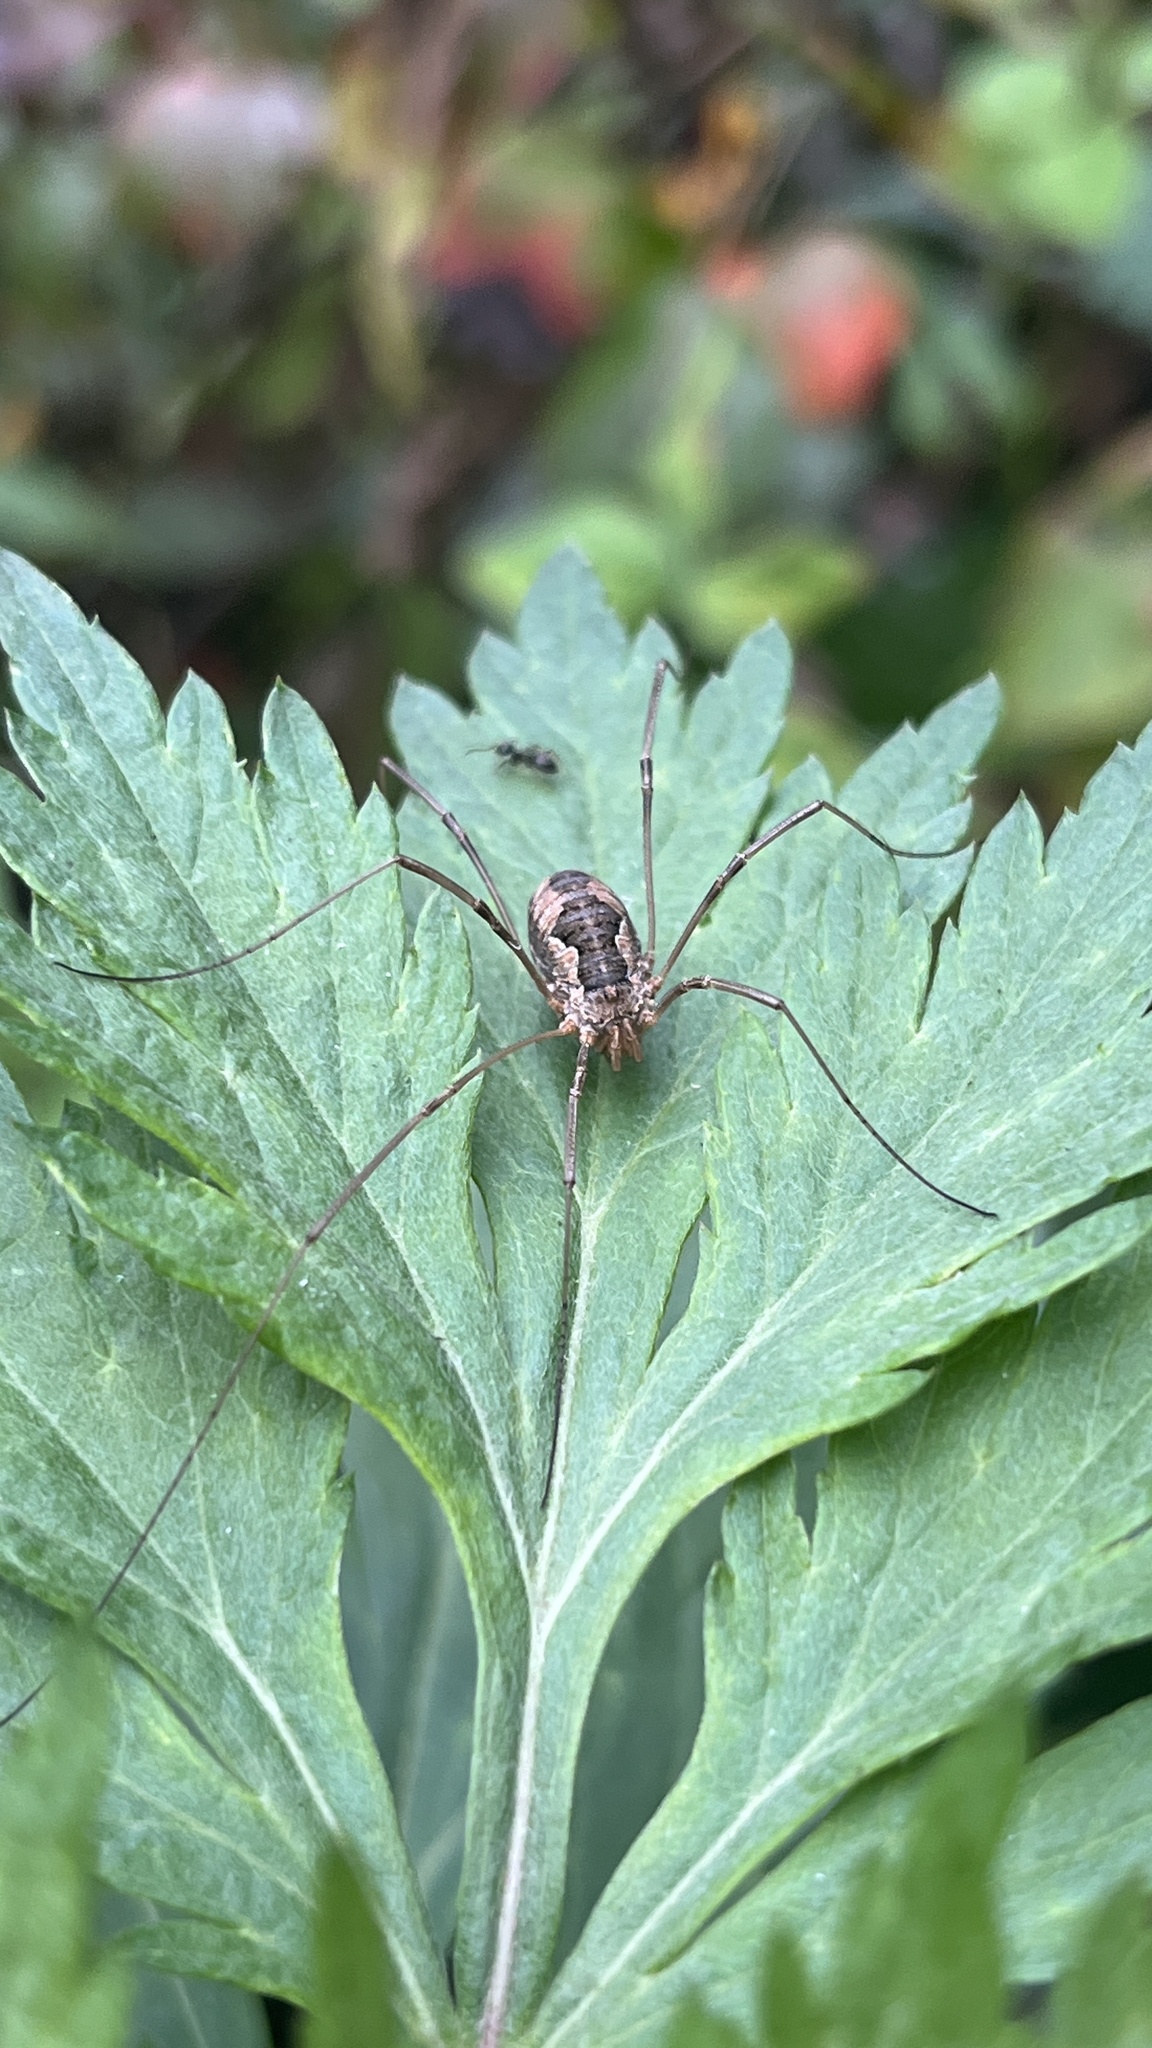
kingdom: Animalia
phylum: Arthropoda
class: Arachnida
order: Opiliones
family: Phalangiidae
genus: Phalangium
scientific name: Phalangium opilio
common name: Daddy longleg
